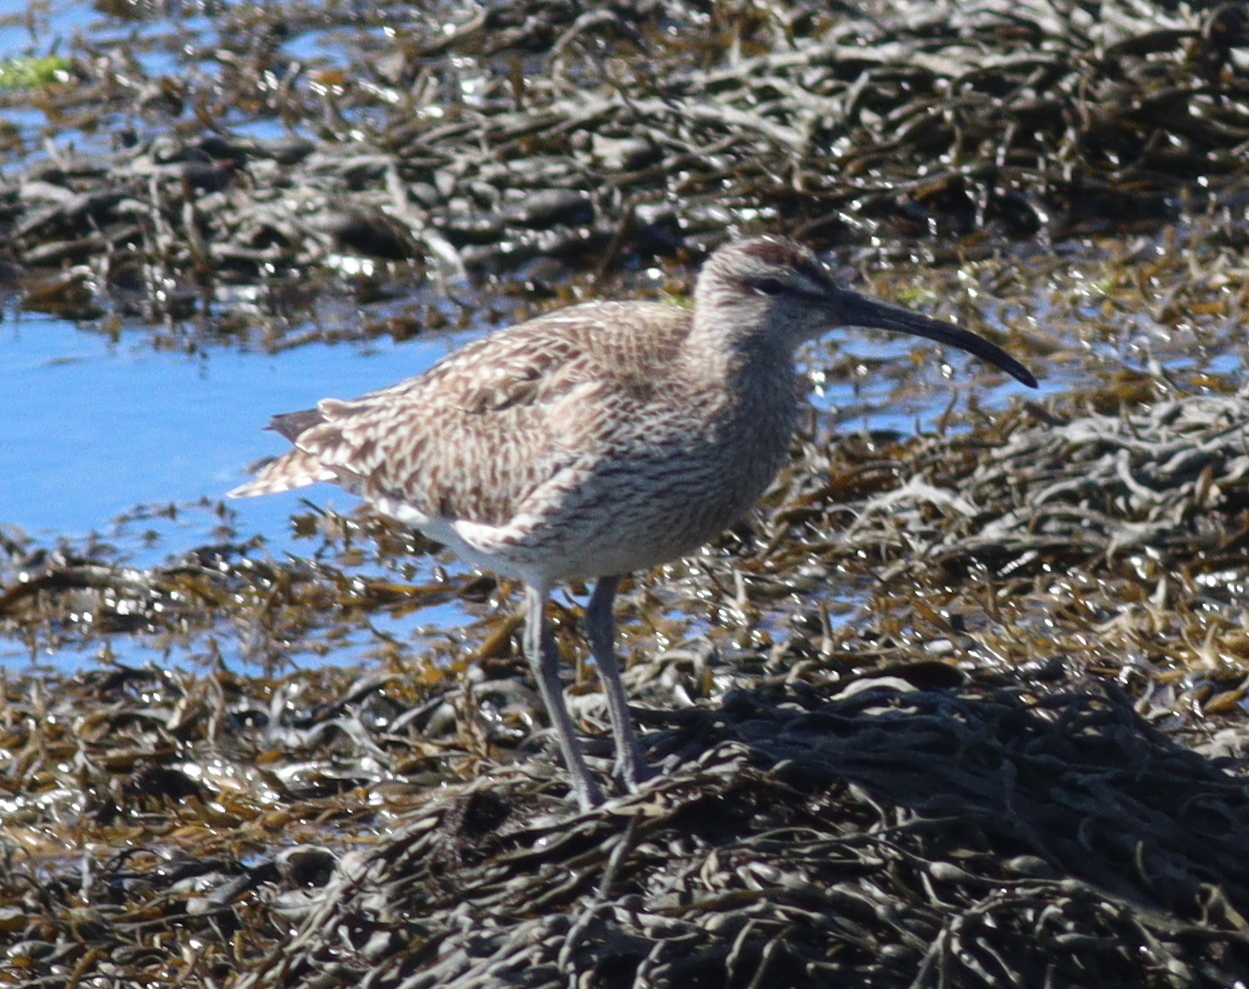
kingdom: Animalia
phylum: Chordata
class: Aves
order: Charadriiformes
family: Scolopacidae
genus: Numenius
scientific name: Numenius phaeopus
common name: Whimbrel
